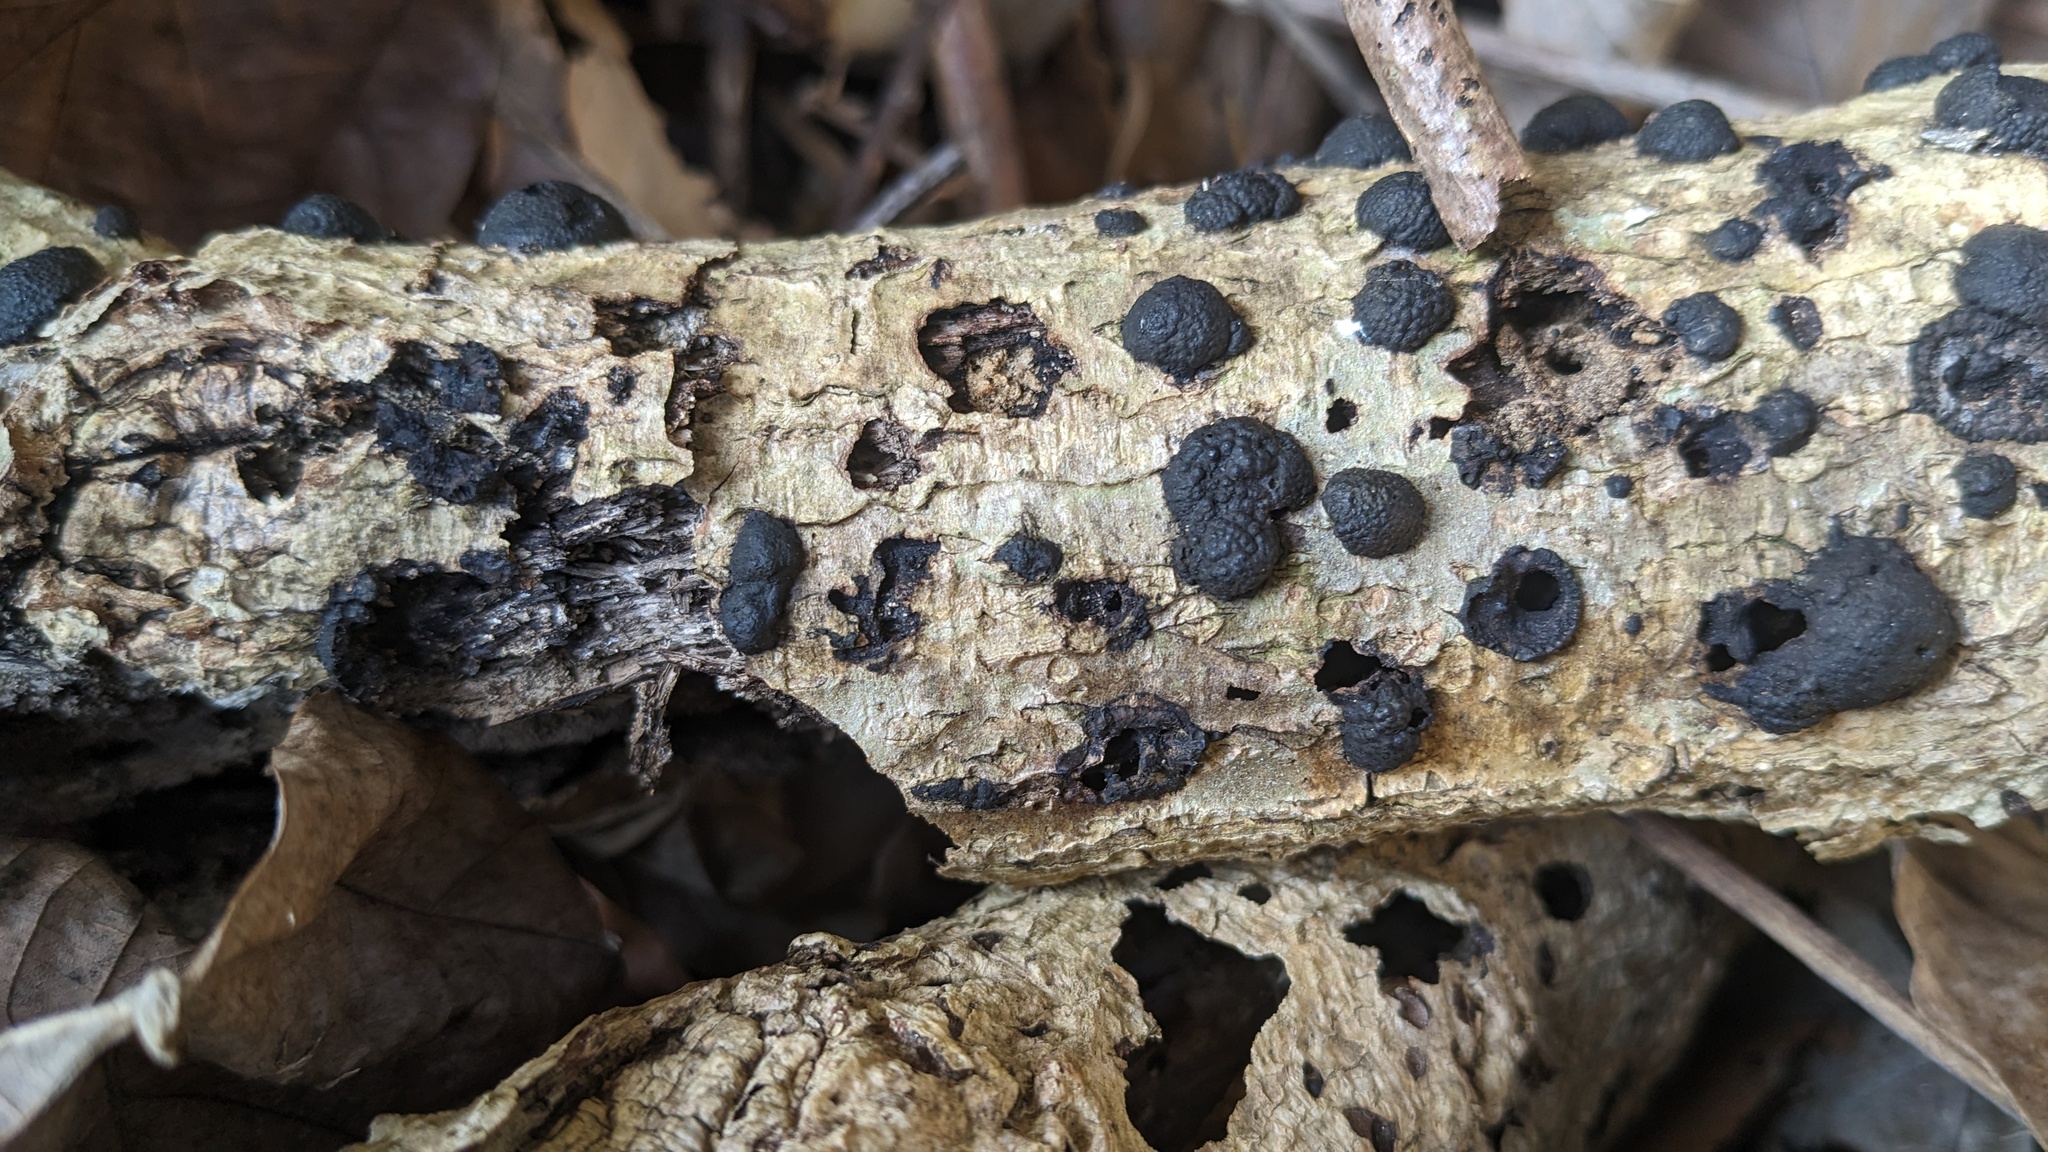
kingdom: Fungi
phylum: Ascomycota
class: Sordariomycetes
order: Xylariales
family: Hypoxylaceae
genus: Annulohypoxylon
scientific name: Annulohypoxylon truncatum
